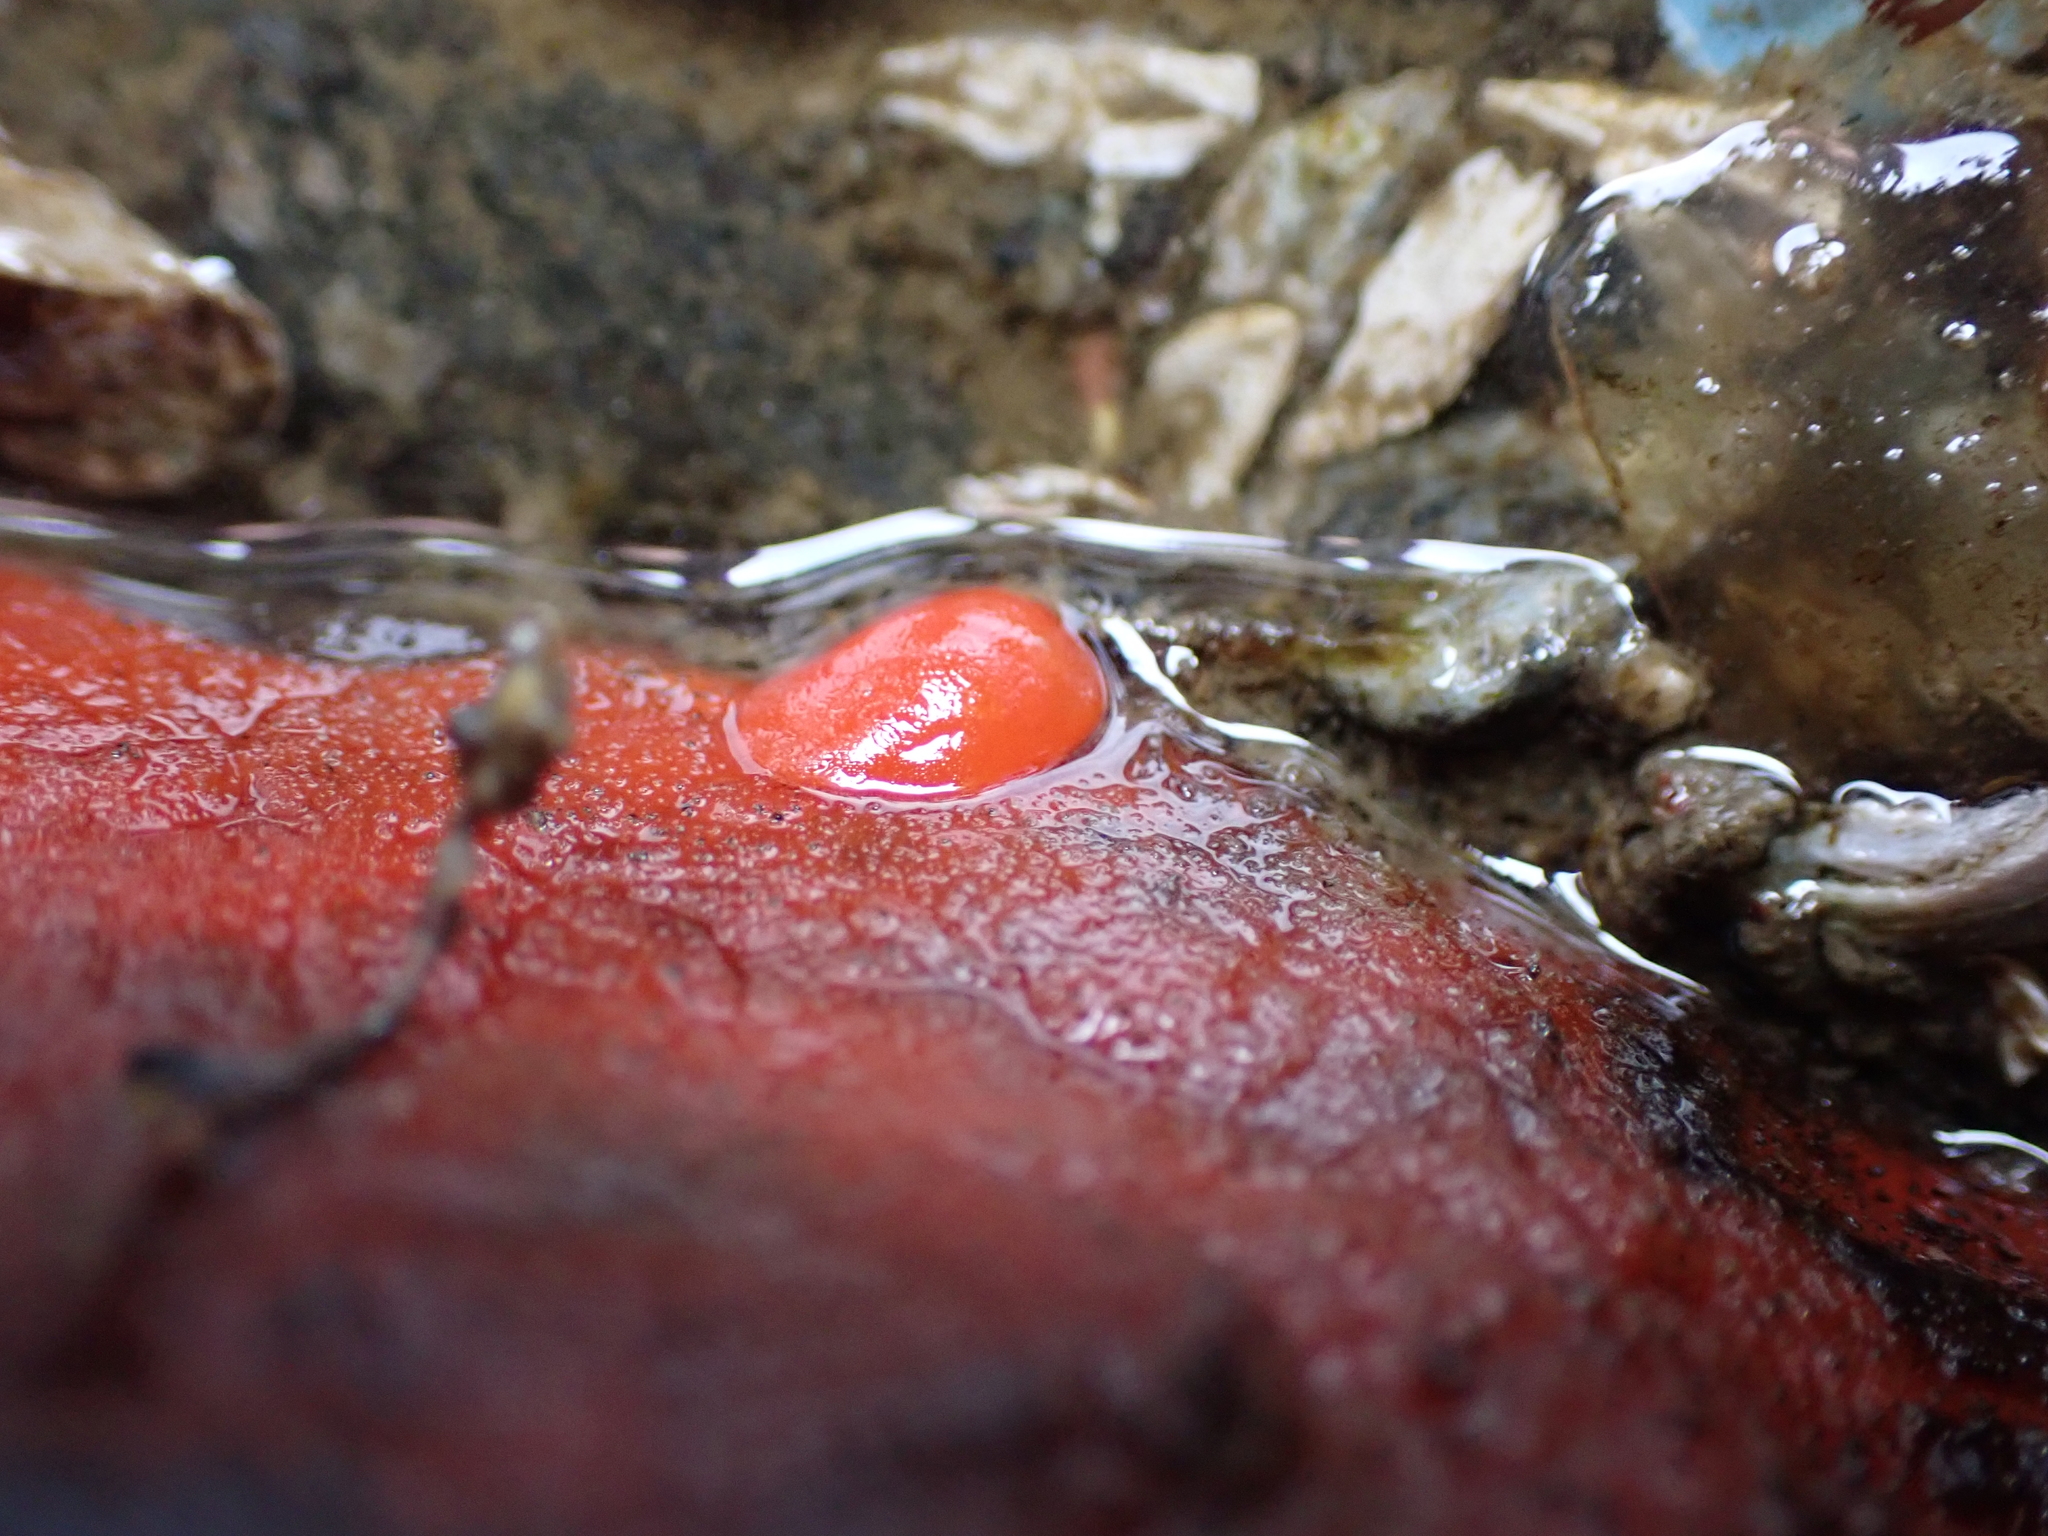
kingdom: Animalia
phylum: Mollusca
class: Gastropoda
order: Nudibranchia
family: Discodorididae
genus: Rostanga
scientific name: Rostanga pulchra
